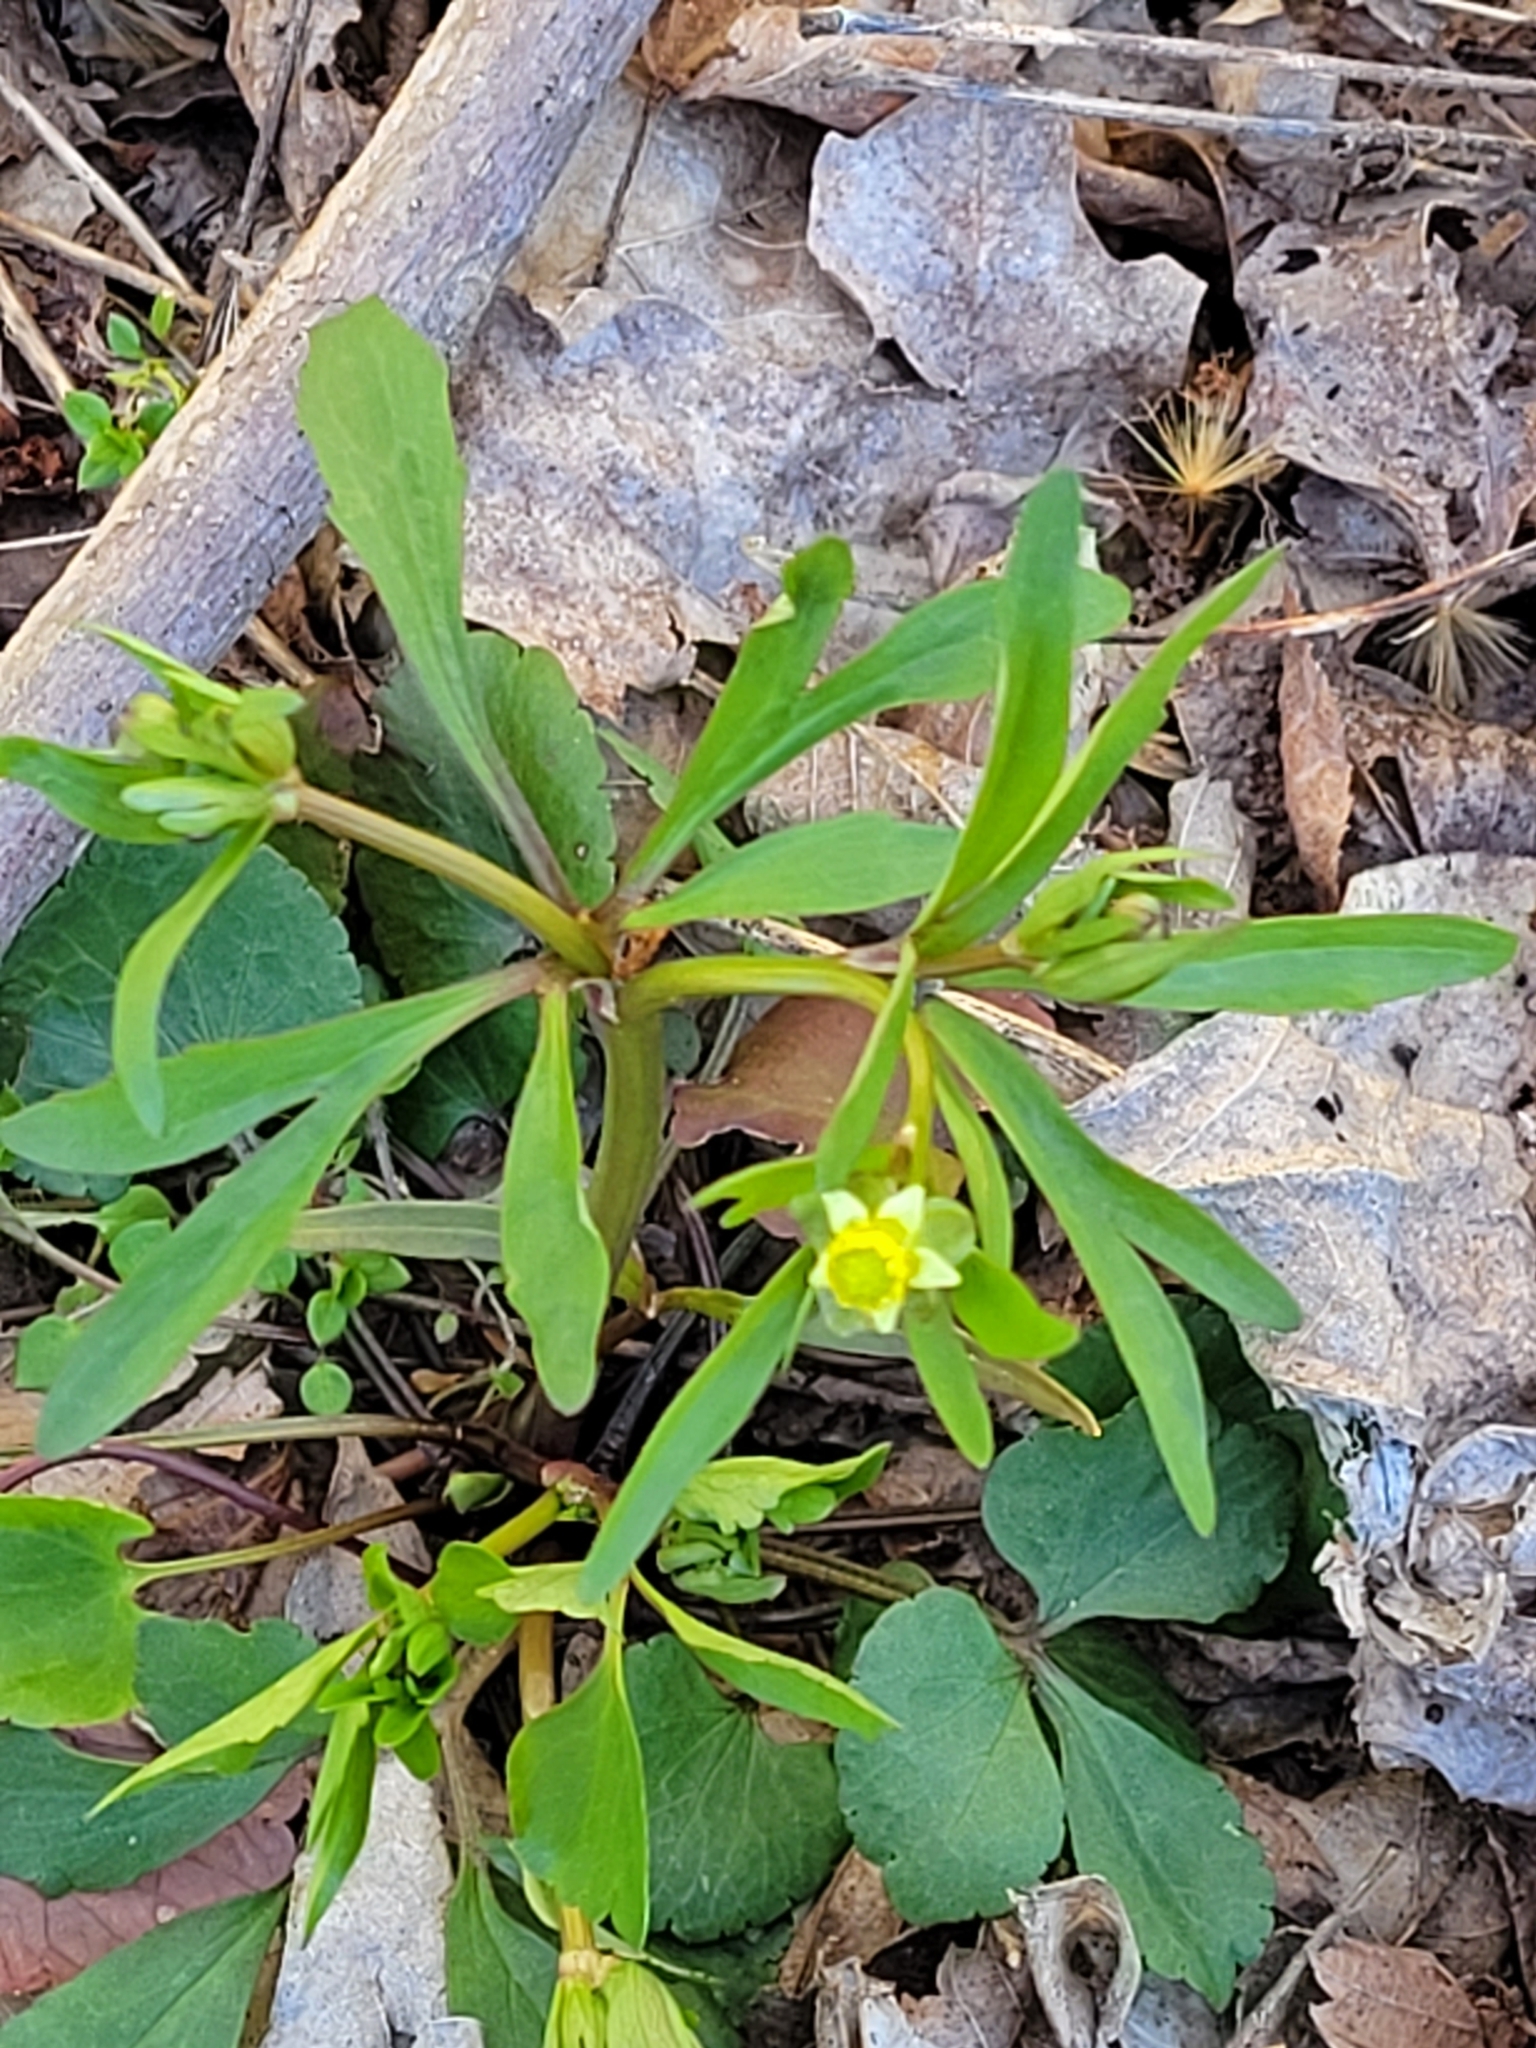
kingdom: Plantae
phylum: Tracheophyta
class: Magnoliopsida
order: Ranunculales
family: Ranunculaceae
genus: Ranunculus
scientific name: Ranunculus abortivus
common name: Early wood buttercup
